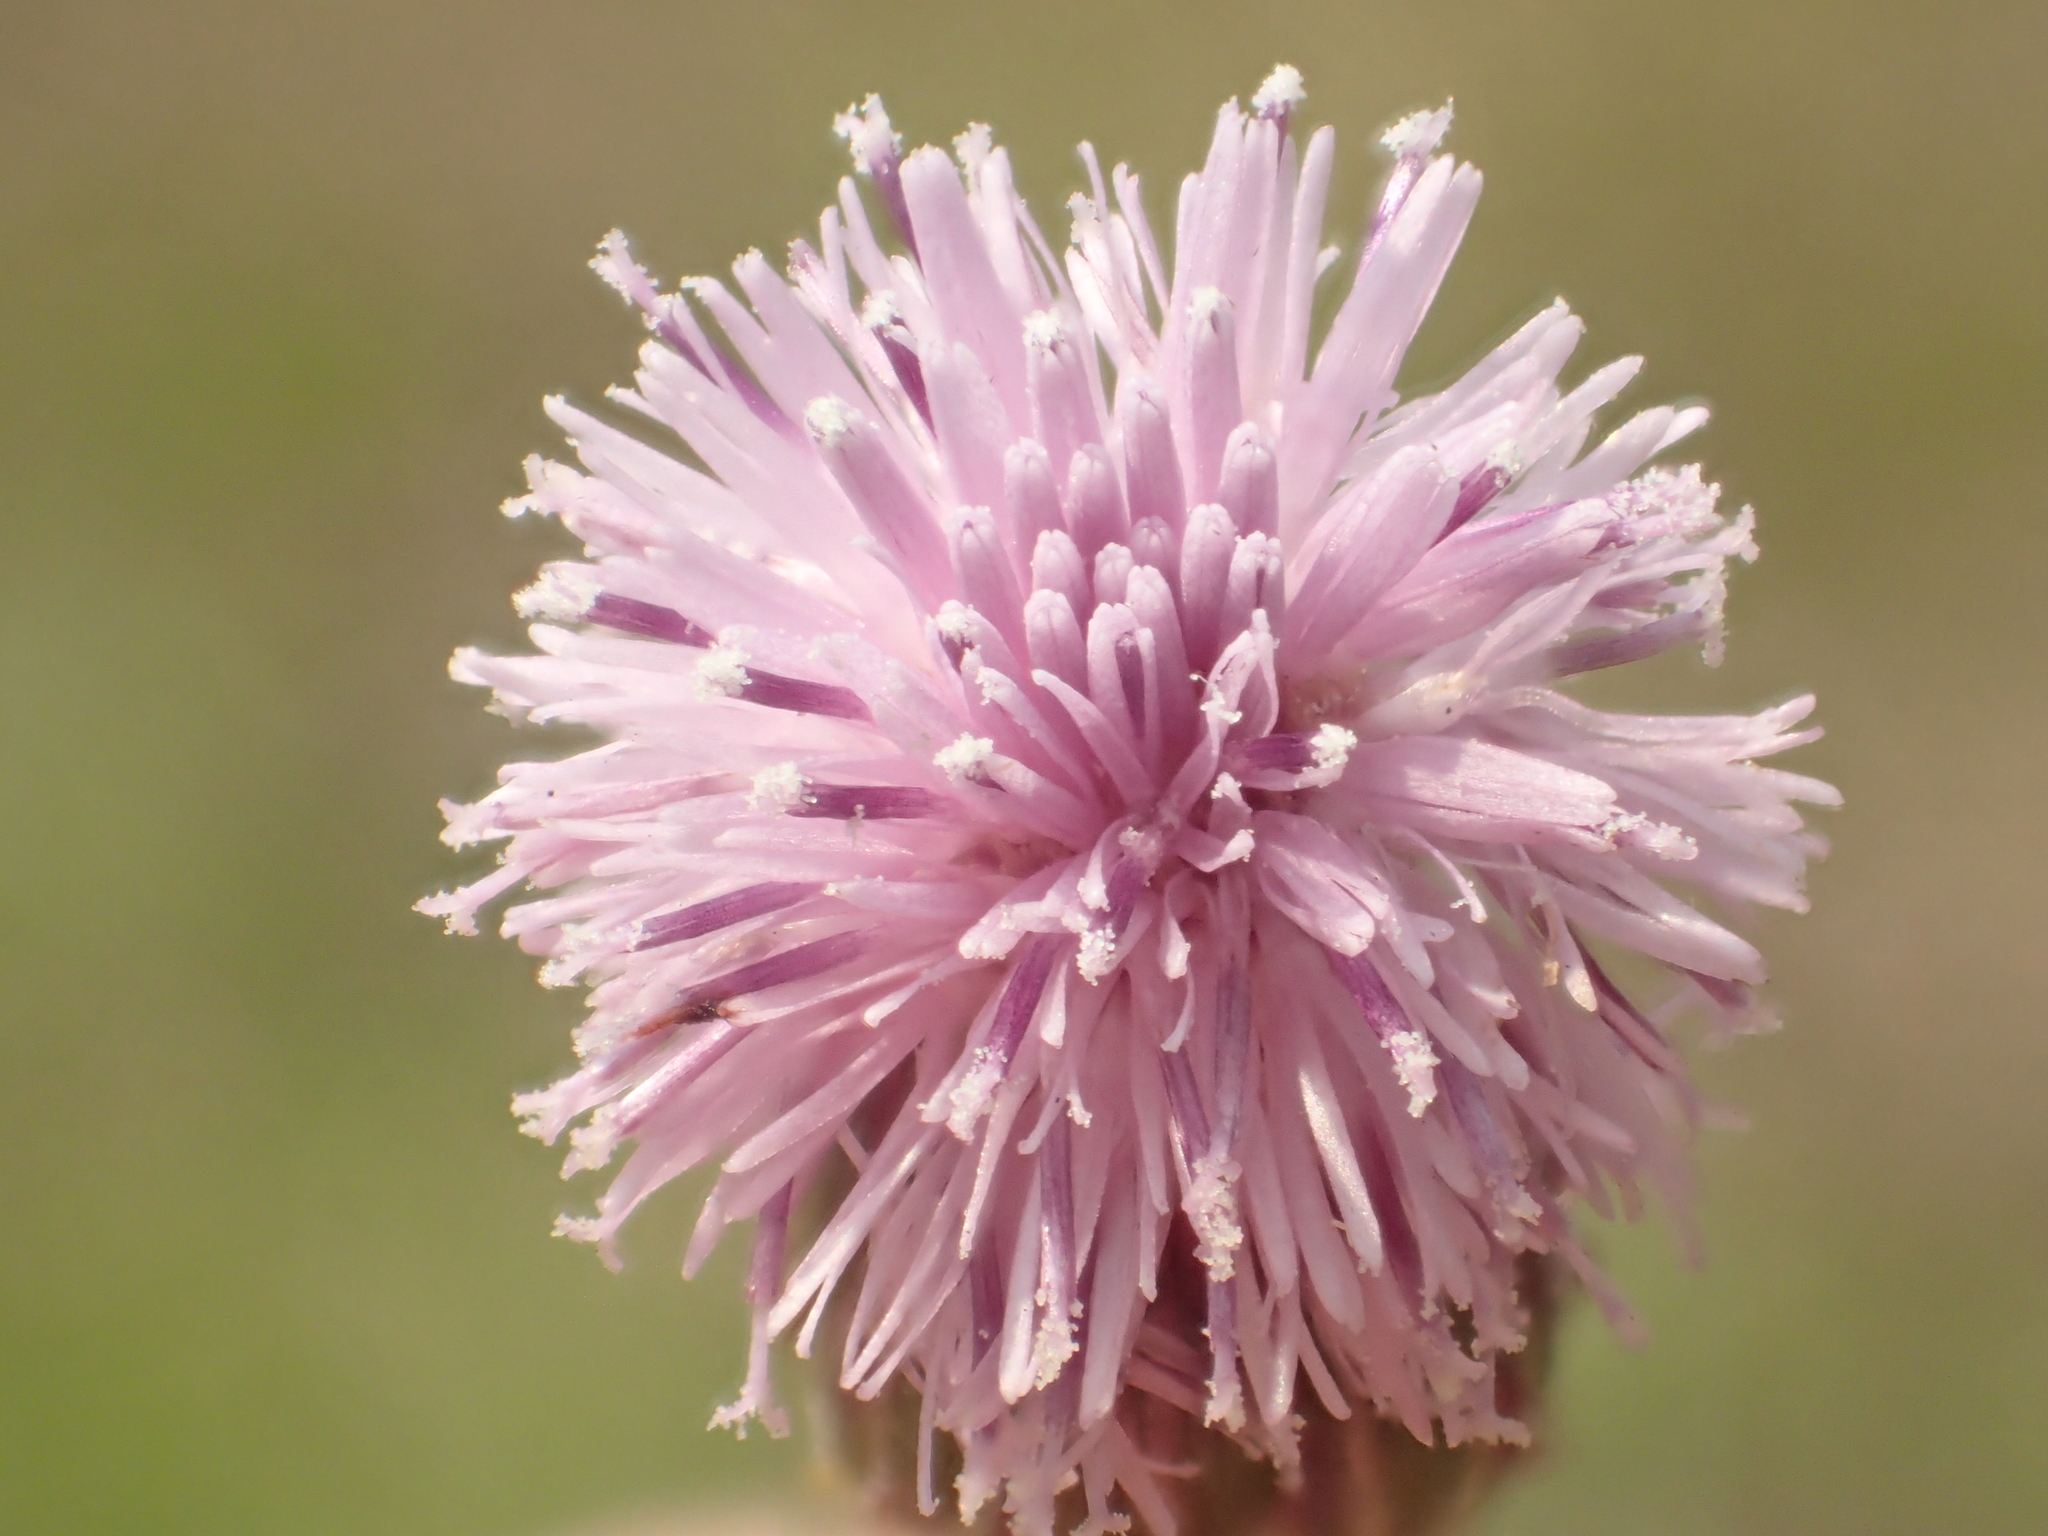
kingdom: Plantae
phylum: Tracheophyta
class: Magnoliopsida
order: Asterales
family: Asteraceae
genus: Saussurea
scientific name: Saussurea lyrata
